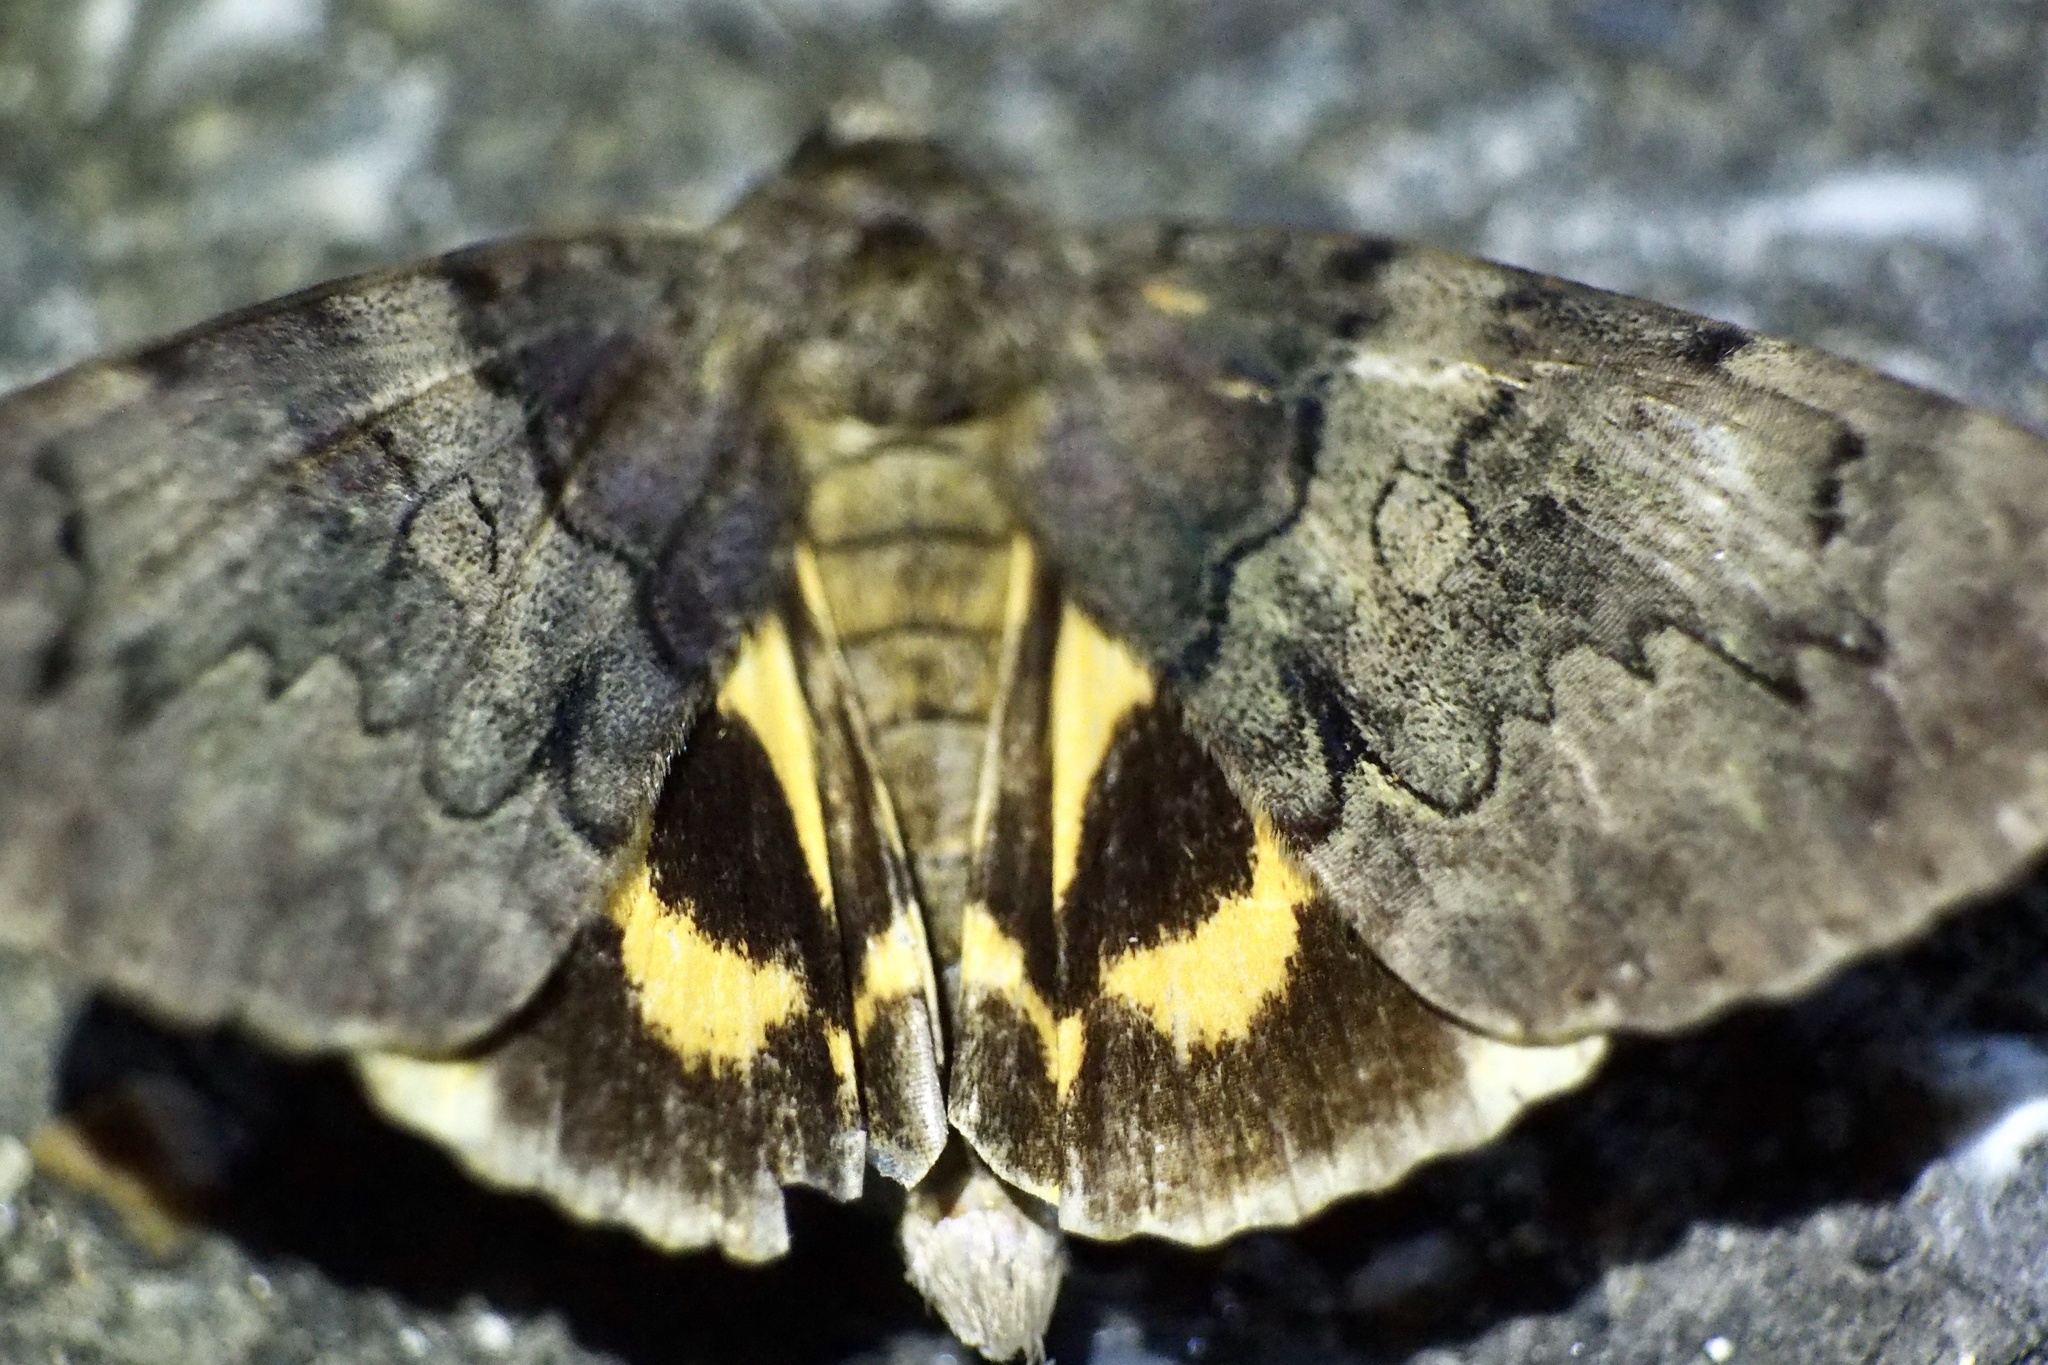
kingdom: Animalia
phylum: Arthropoda
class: Insecta
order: Lepidoptera
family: Erebidae
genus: Catocala
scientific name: Catocala patala
